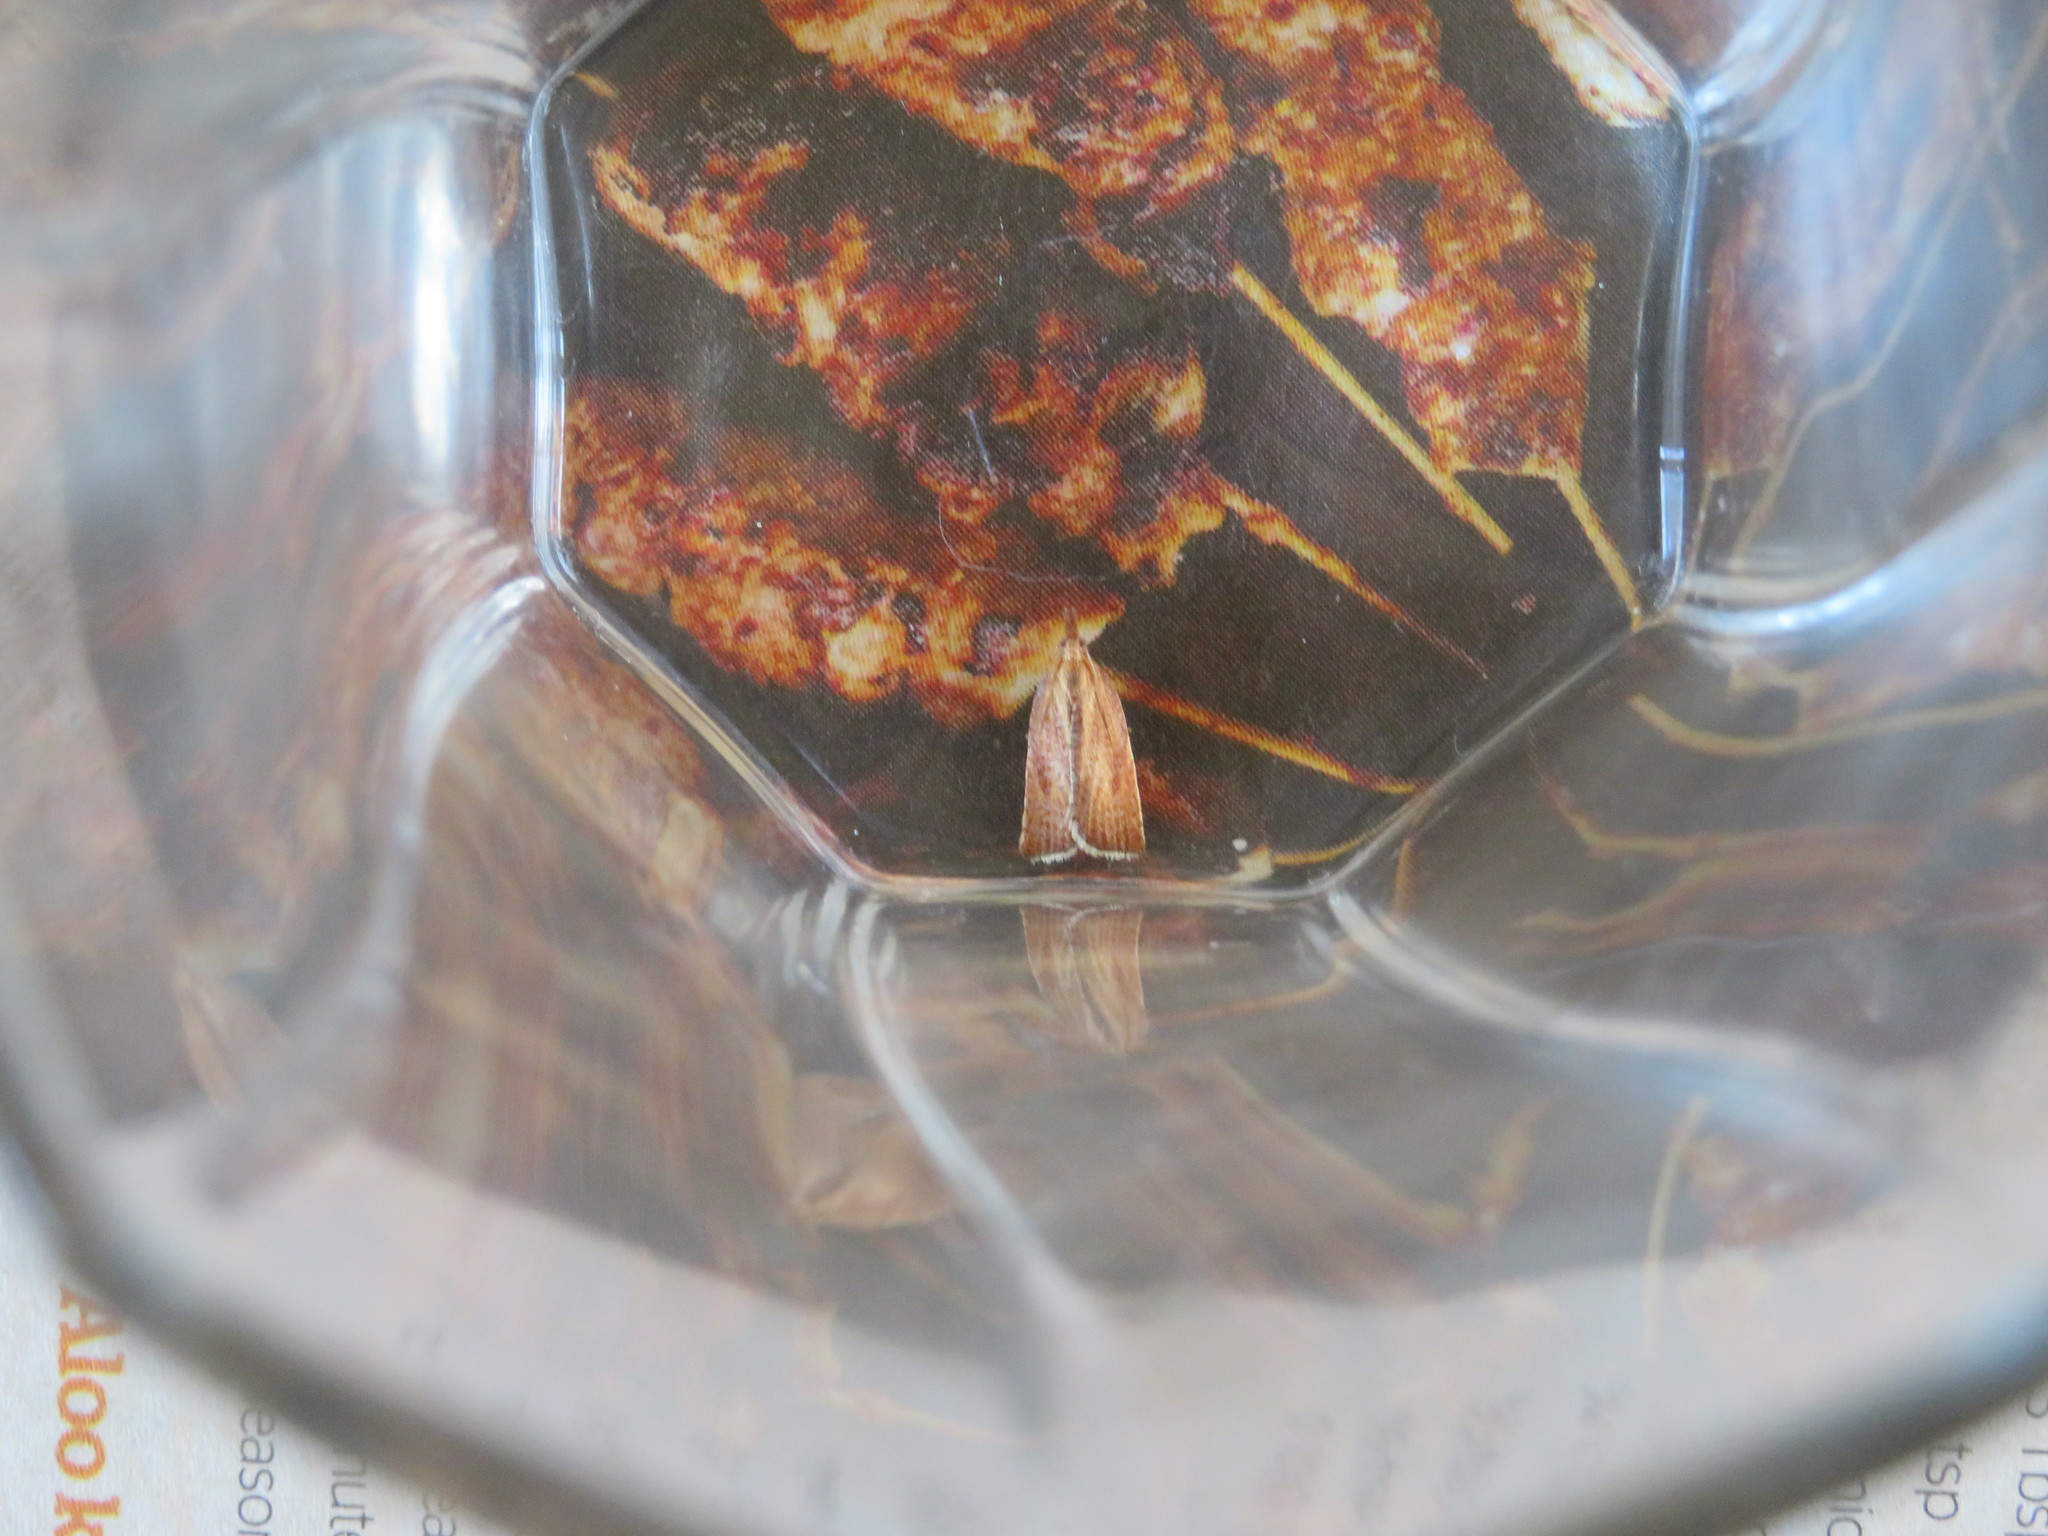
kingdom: Animalia
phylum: Arthropoda
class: Insecta
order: Lepidoptera
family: Tortricidae
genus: Catamacta
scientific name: Catamacta lotinana
